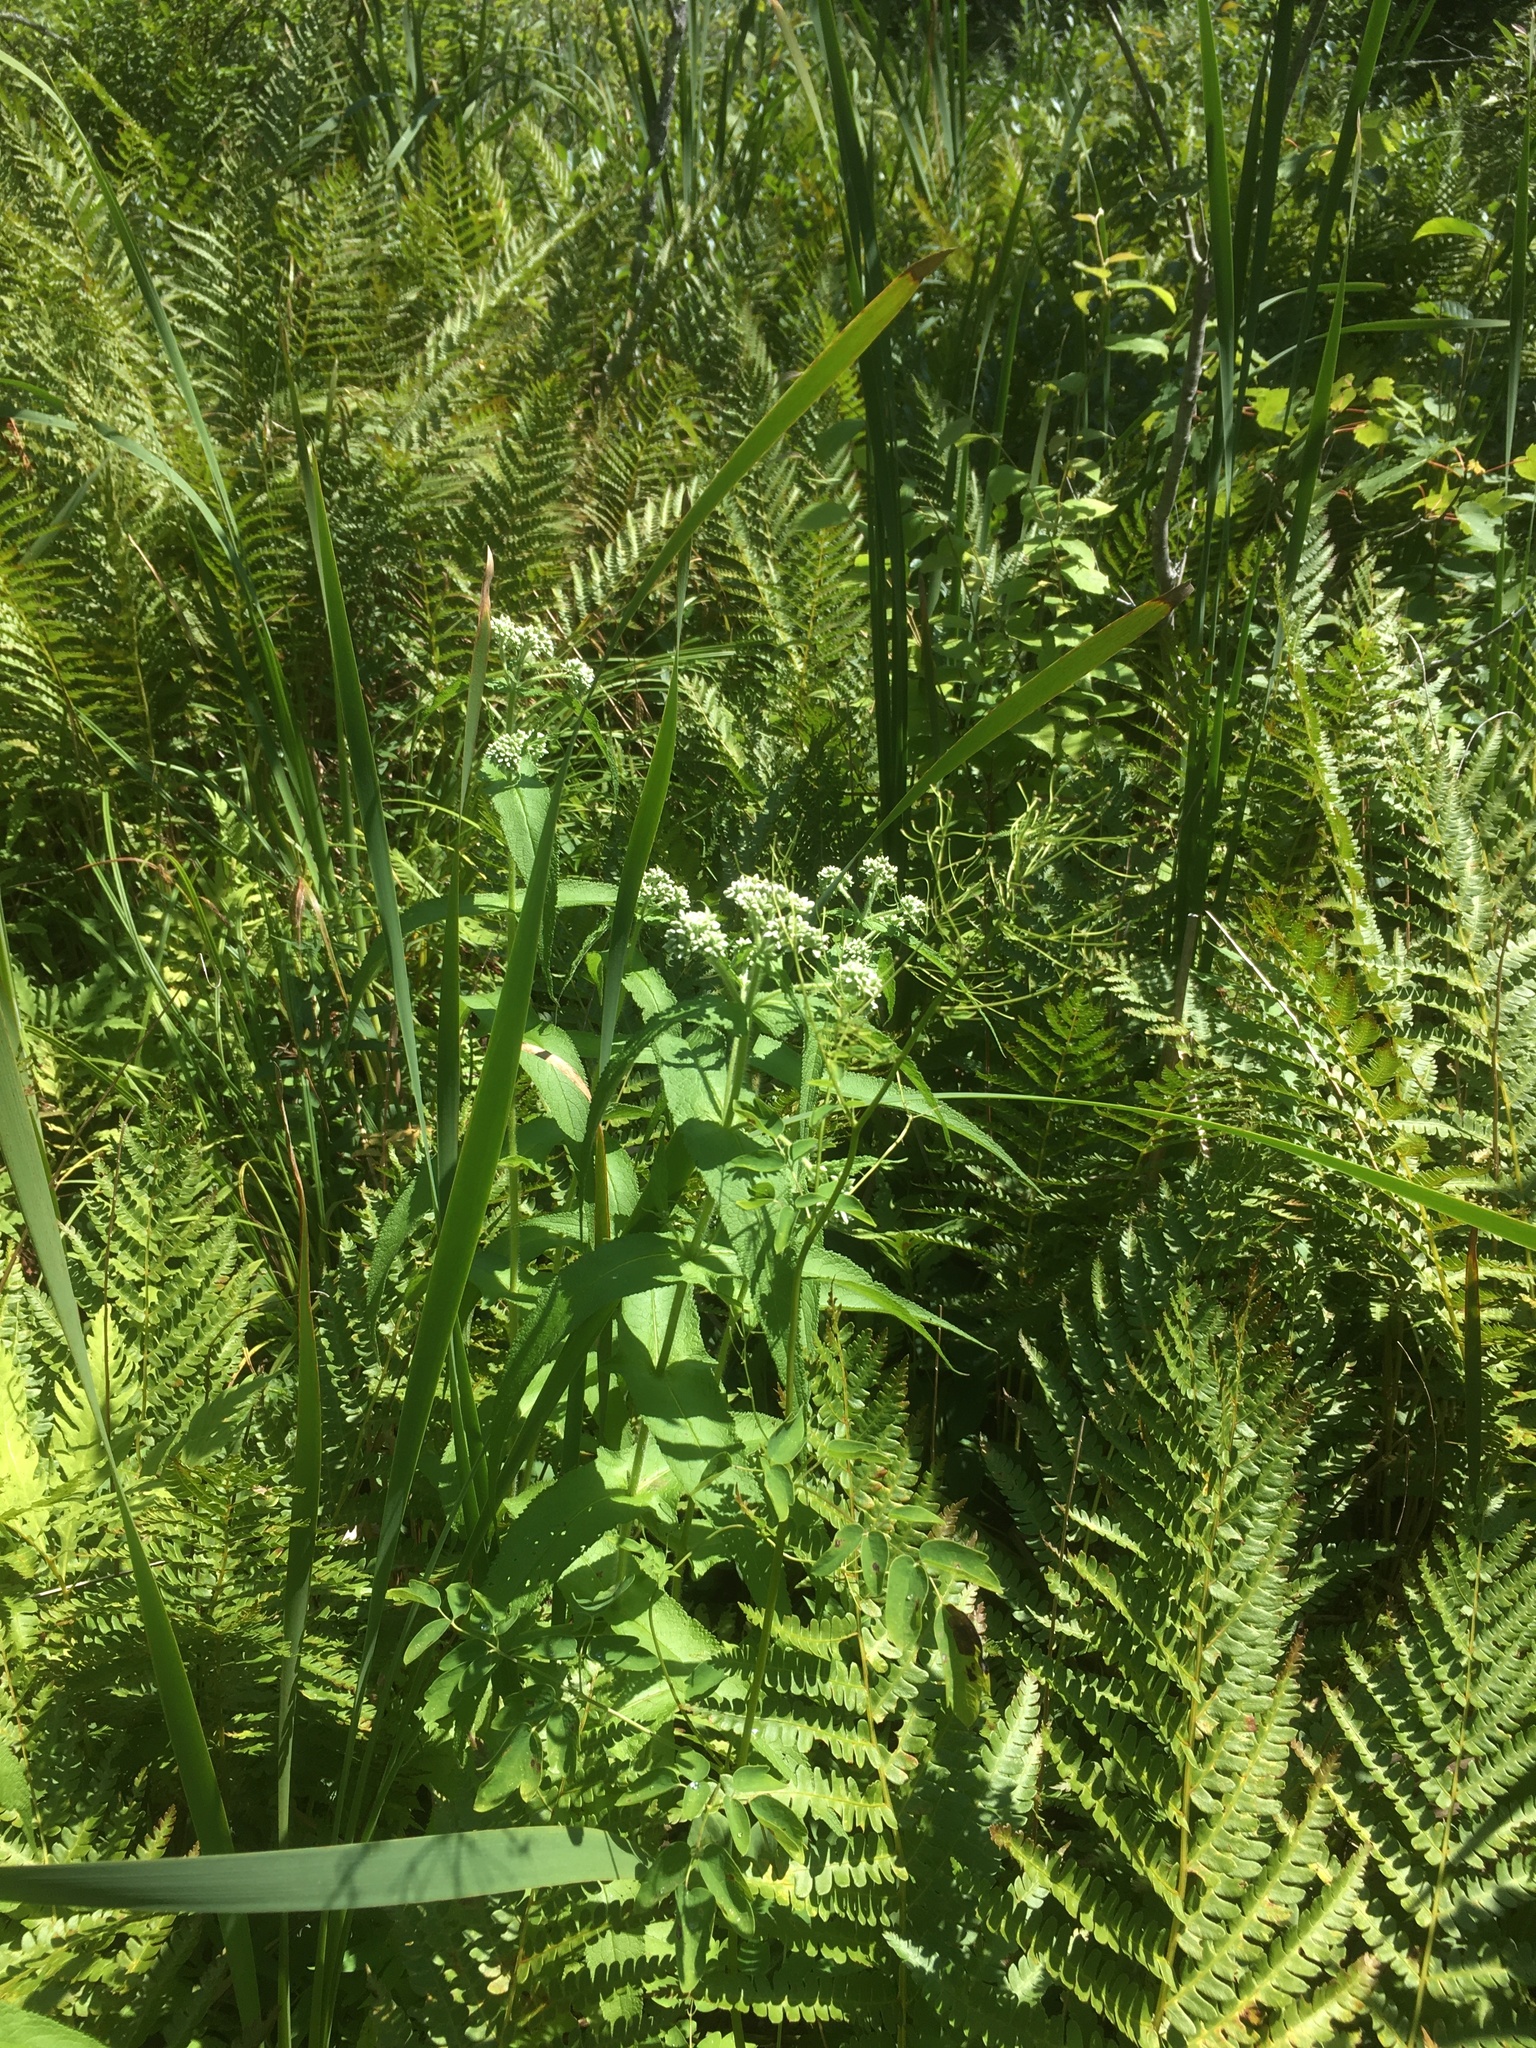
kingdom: Plantae
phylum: Tracheophyta
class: Magnoliopsida
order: Asterales
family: Asteraceae
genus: Eupatorium
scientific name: Eupatorium perfoliatum
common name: Boneset
